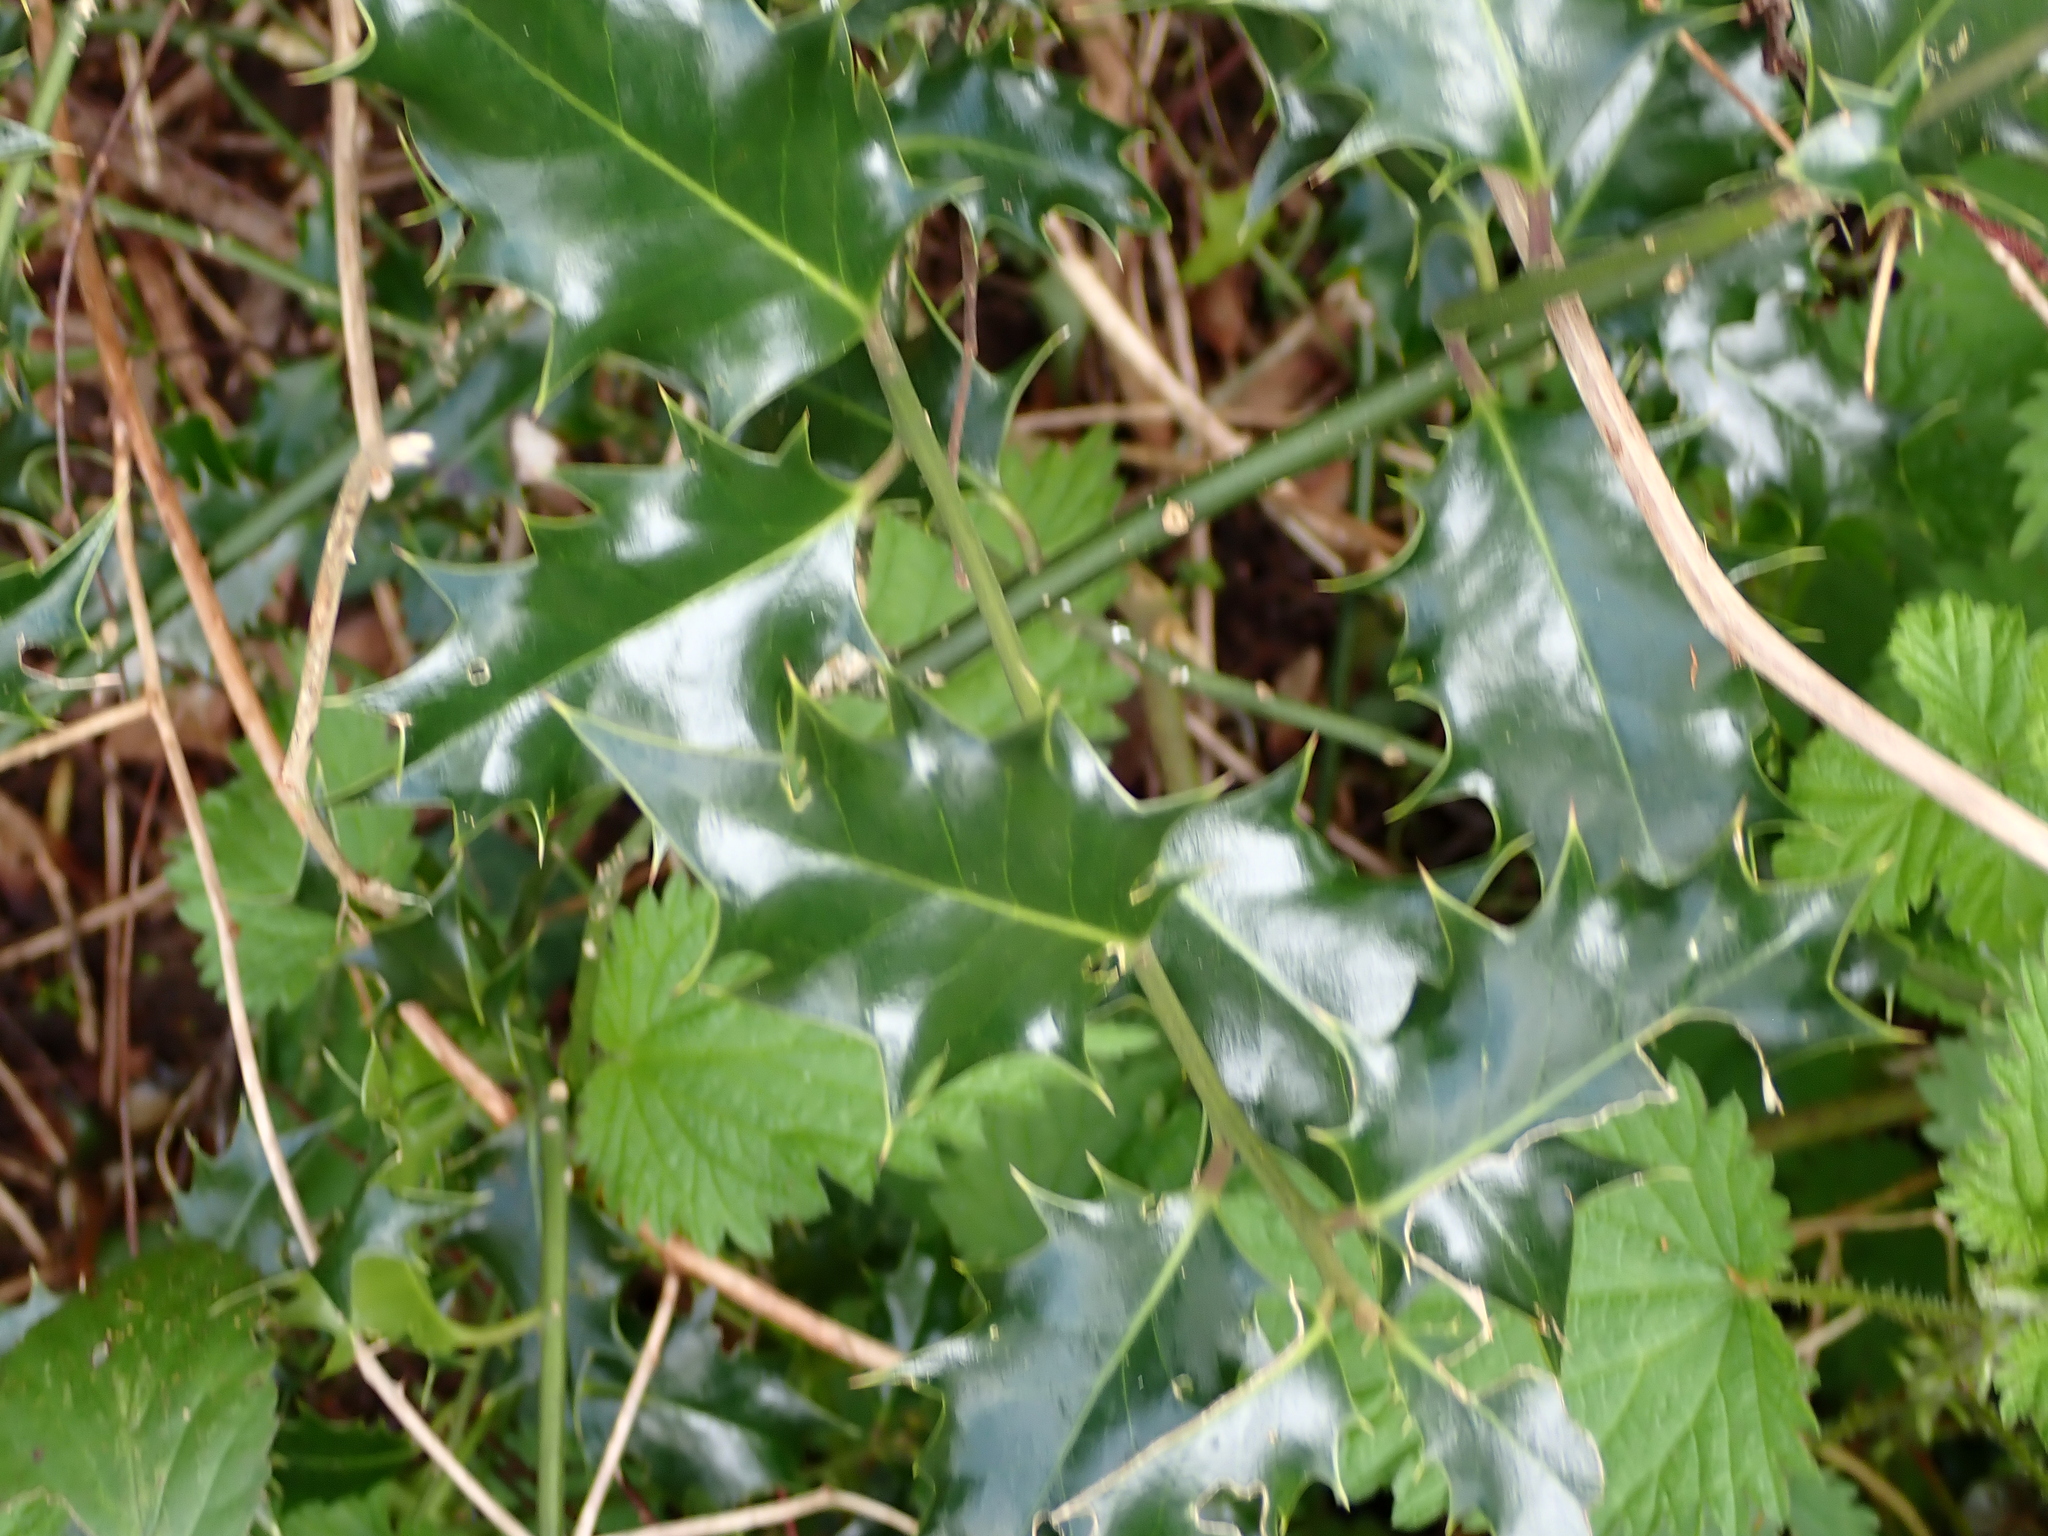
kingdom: Plantae
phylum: Tracheophyta
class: Magnoliopsida
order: Aquifoliales
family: Aquifoliaceae
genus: Ilex
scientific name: Ilex aquifolium
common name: English holly
